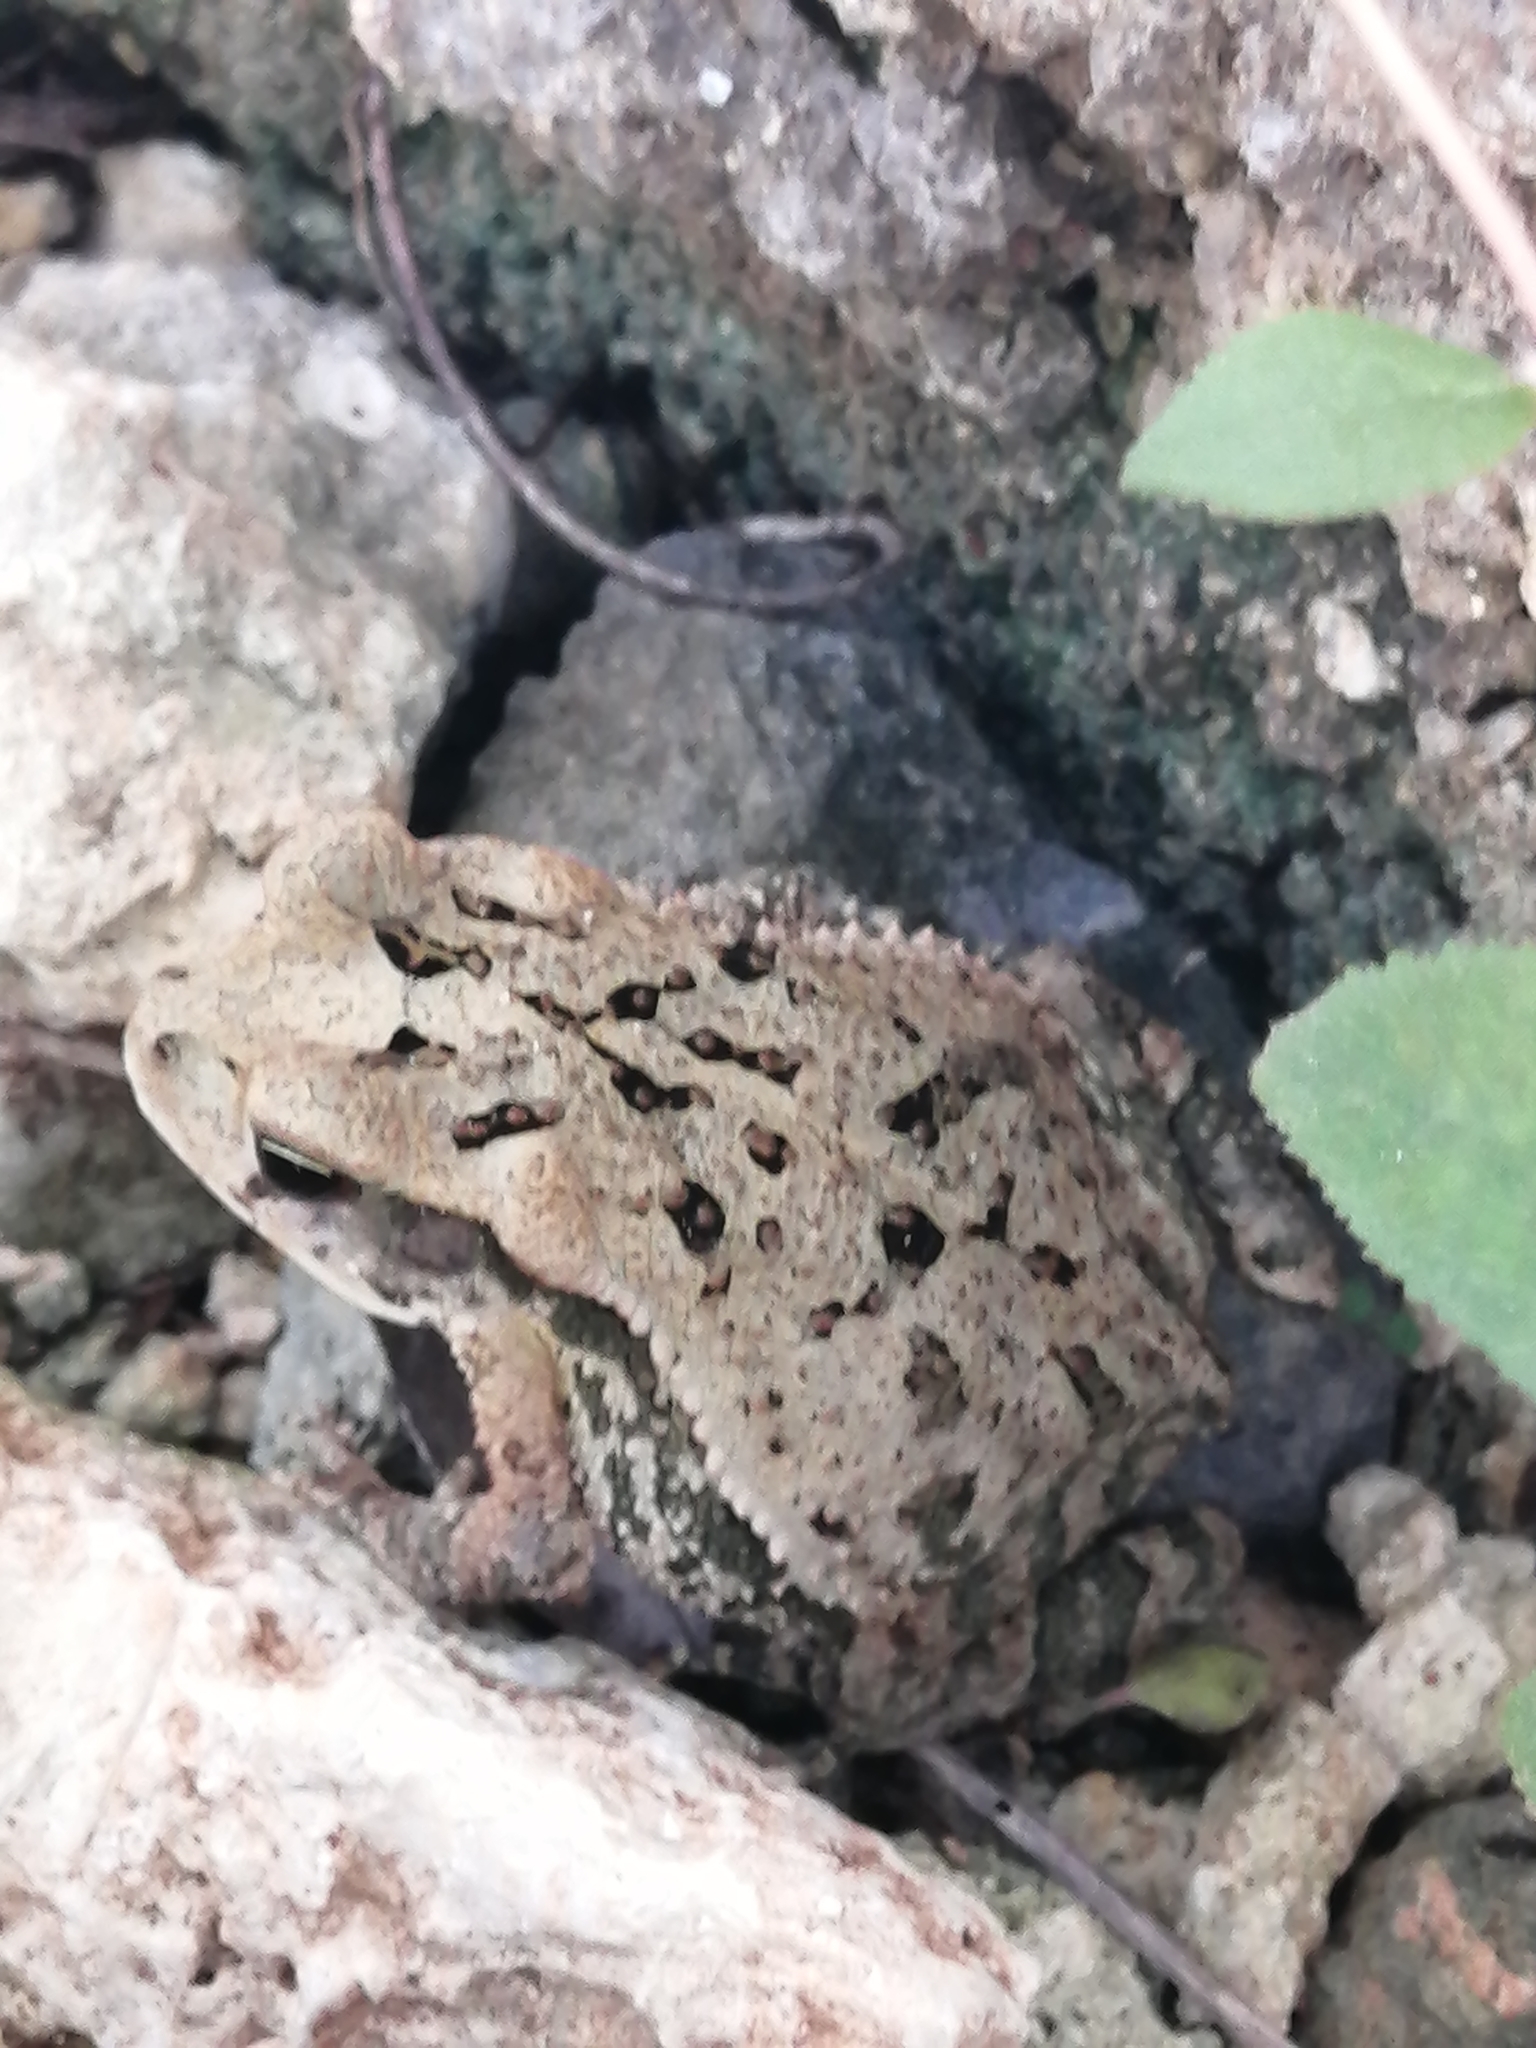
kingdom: Animalia
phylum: Chordata
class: Amphibia
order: Anura
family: Bufonidae
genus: Incilius
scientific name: Incilius valliceps
